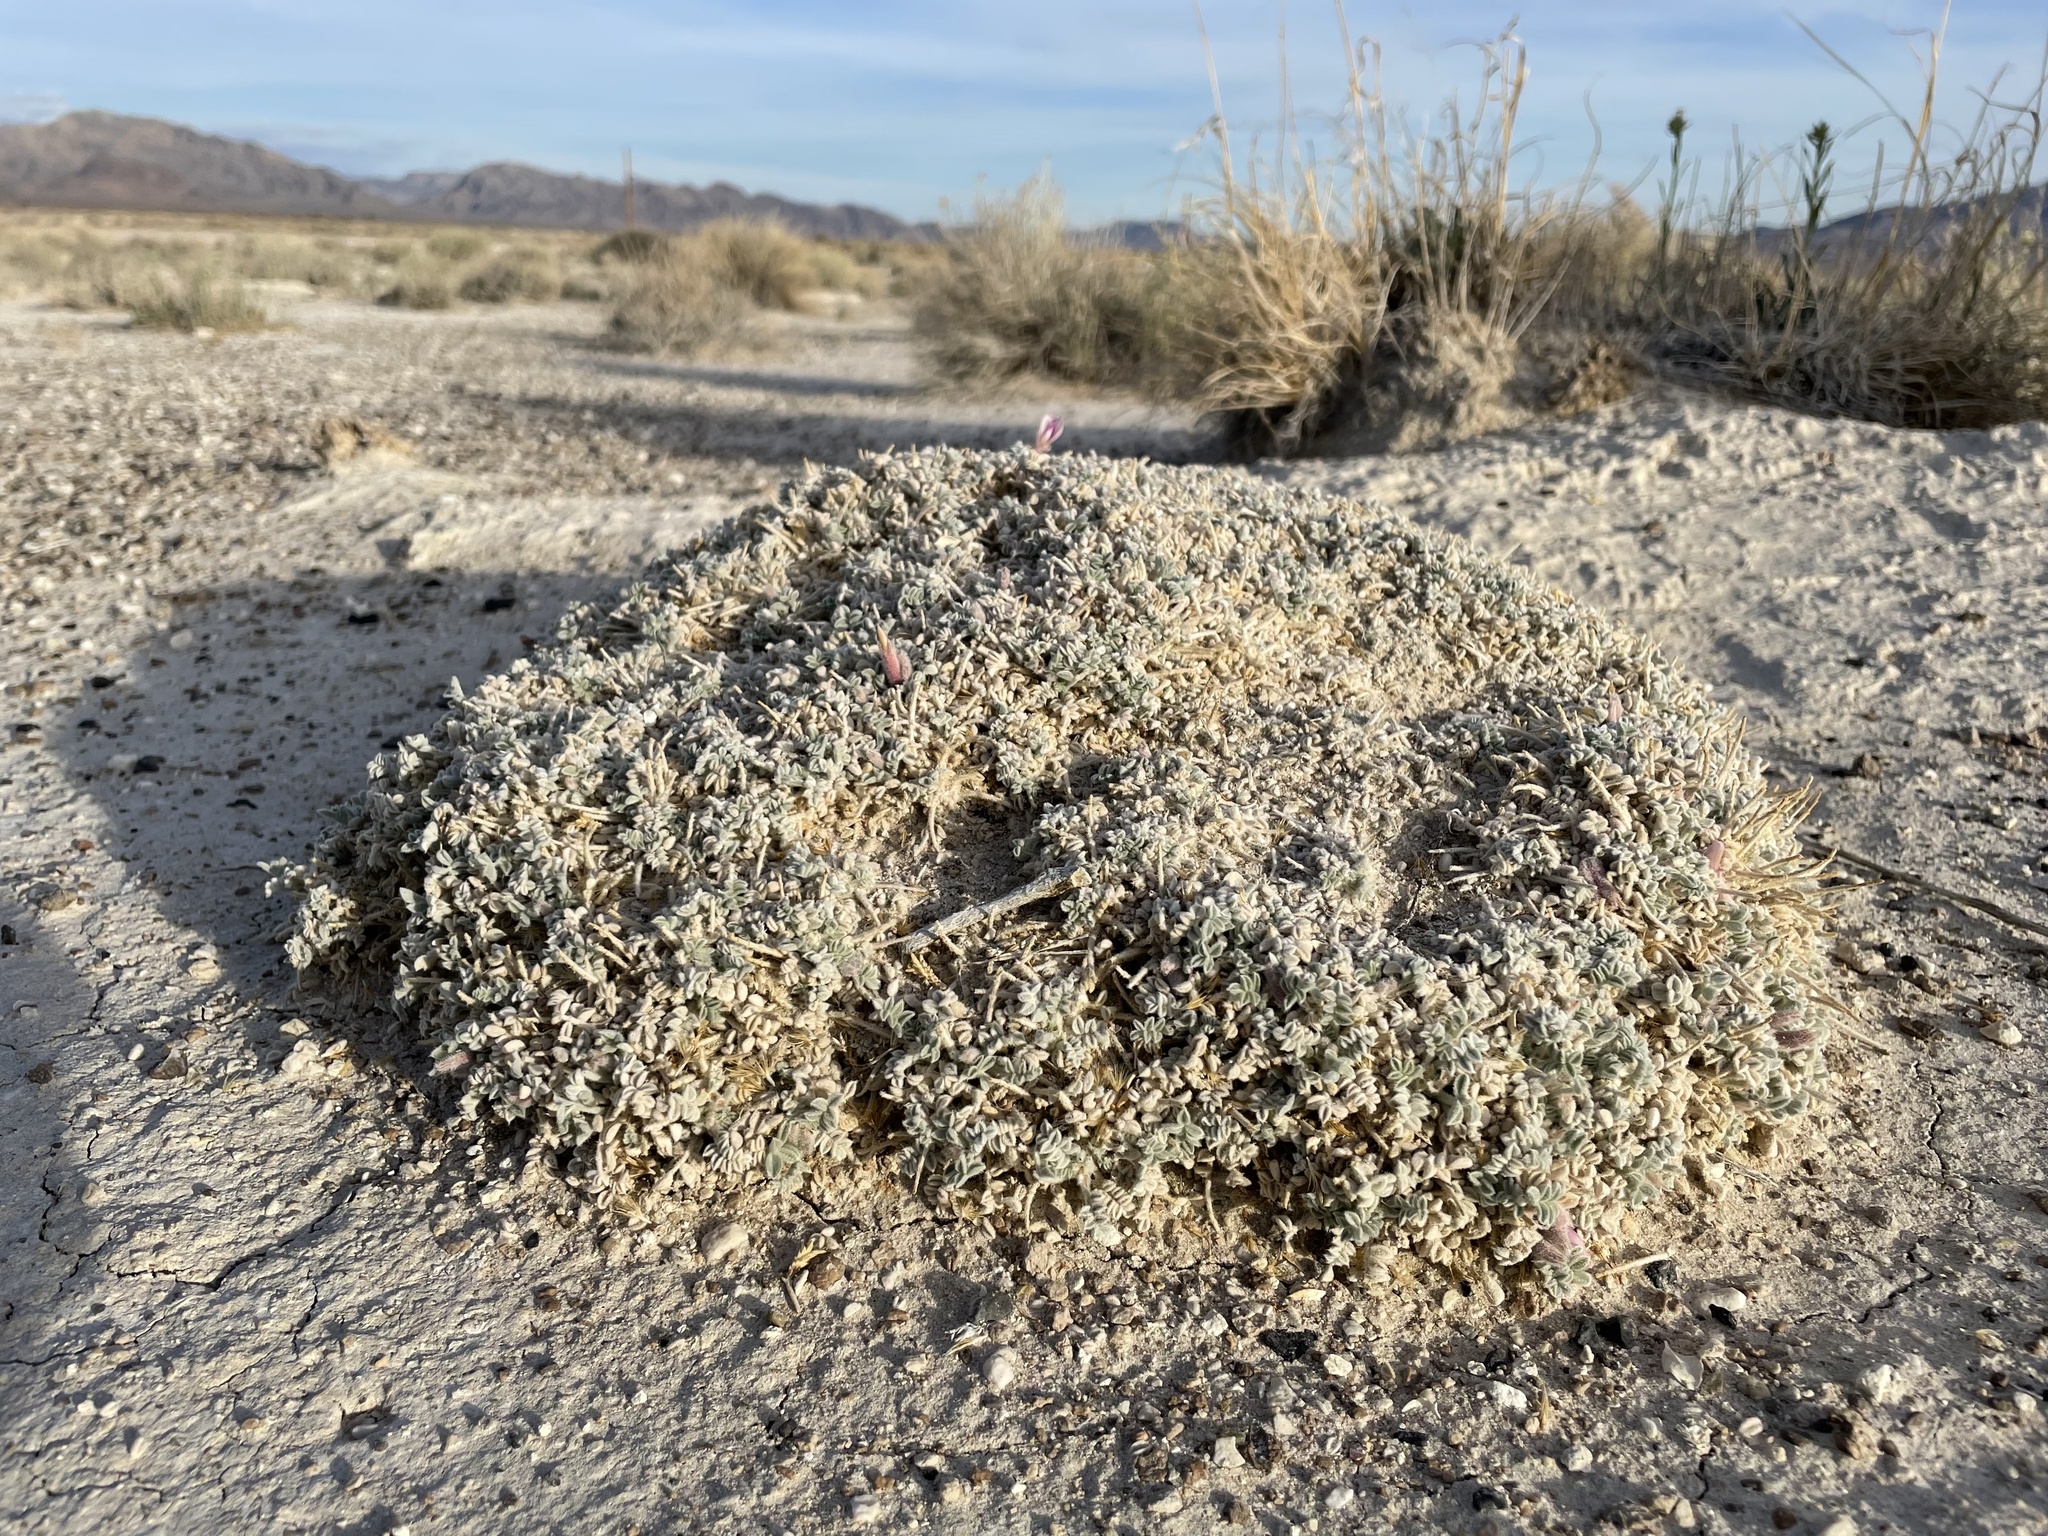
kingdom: Plantae
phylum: Tracheophyta
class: Magnoliopsida
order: Fabales
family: Fabaceae
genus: Astragalus
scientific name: Astragalus phoenix
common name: Ash meadows milk-vetch
